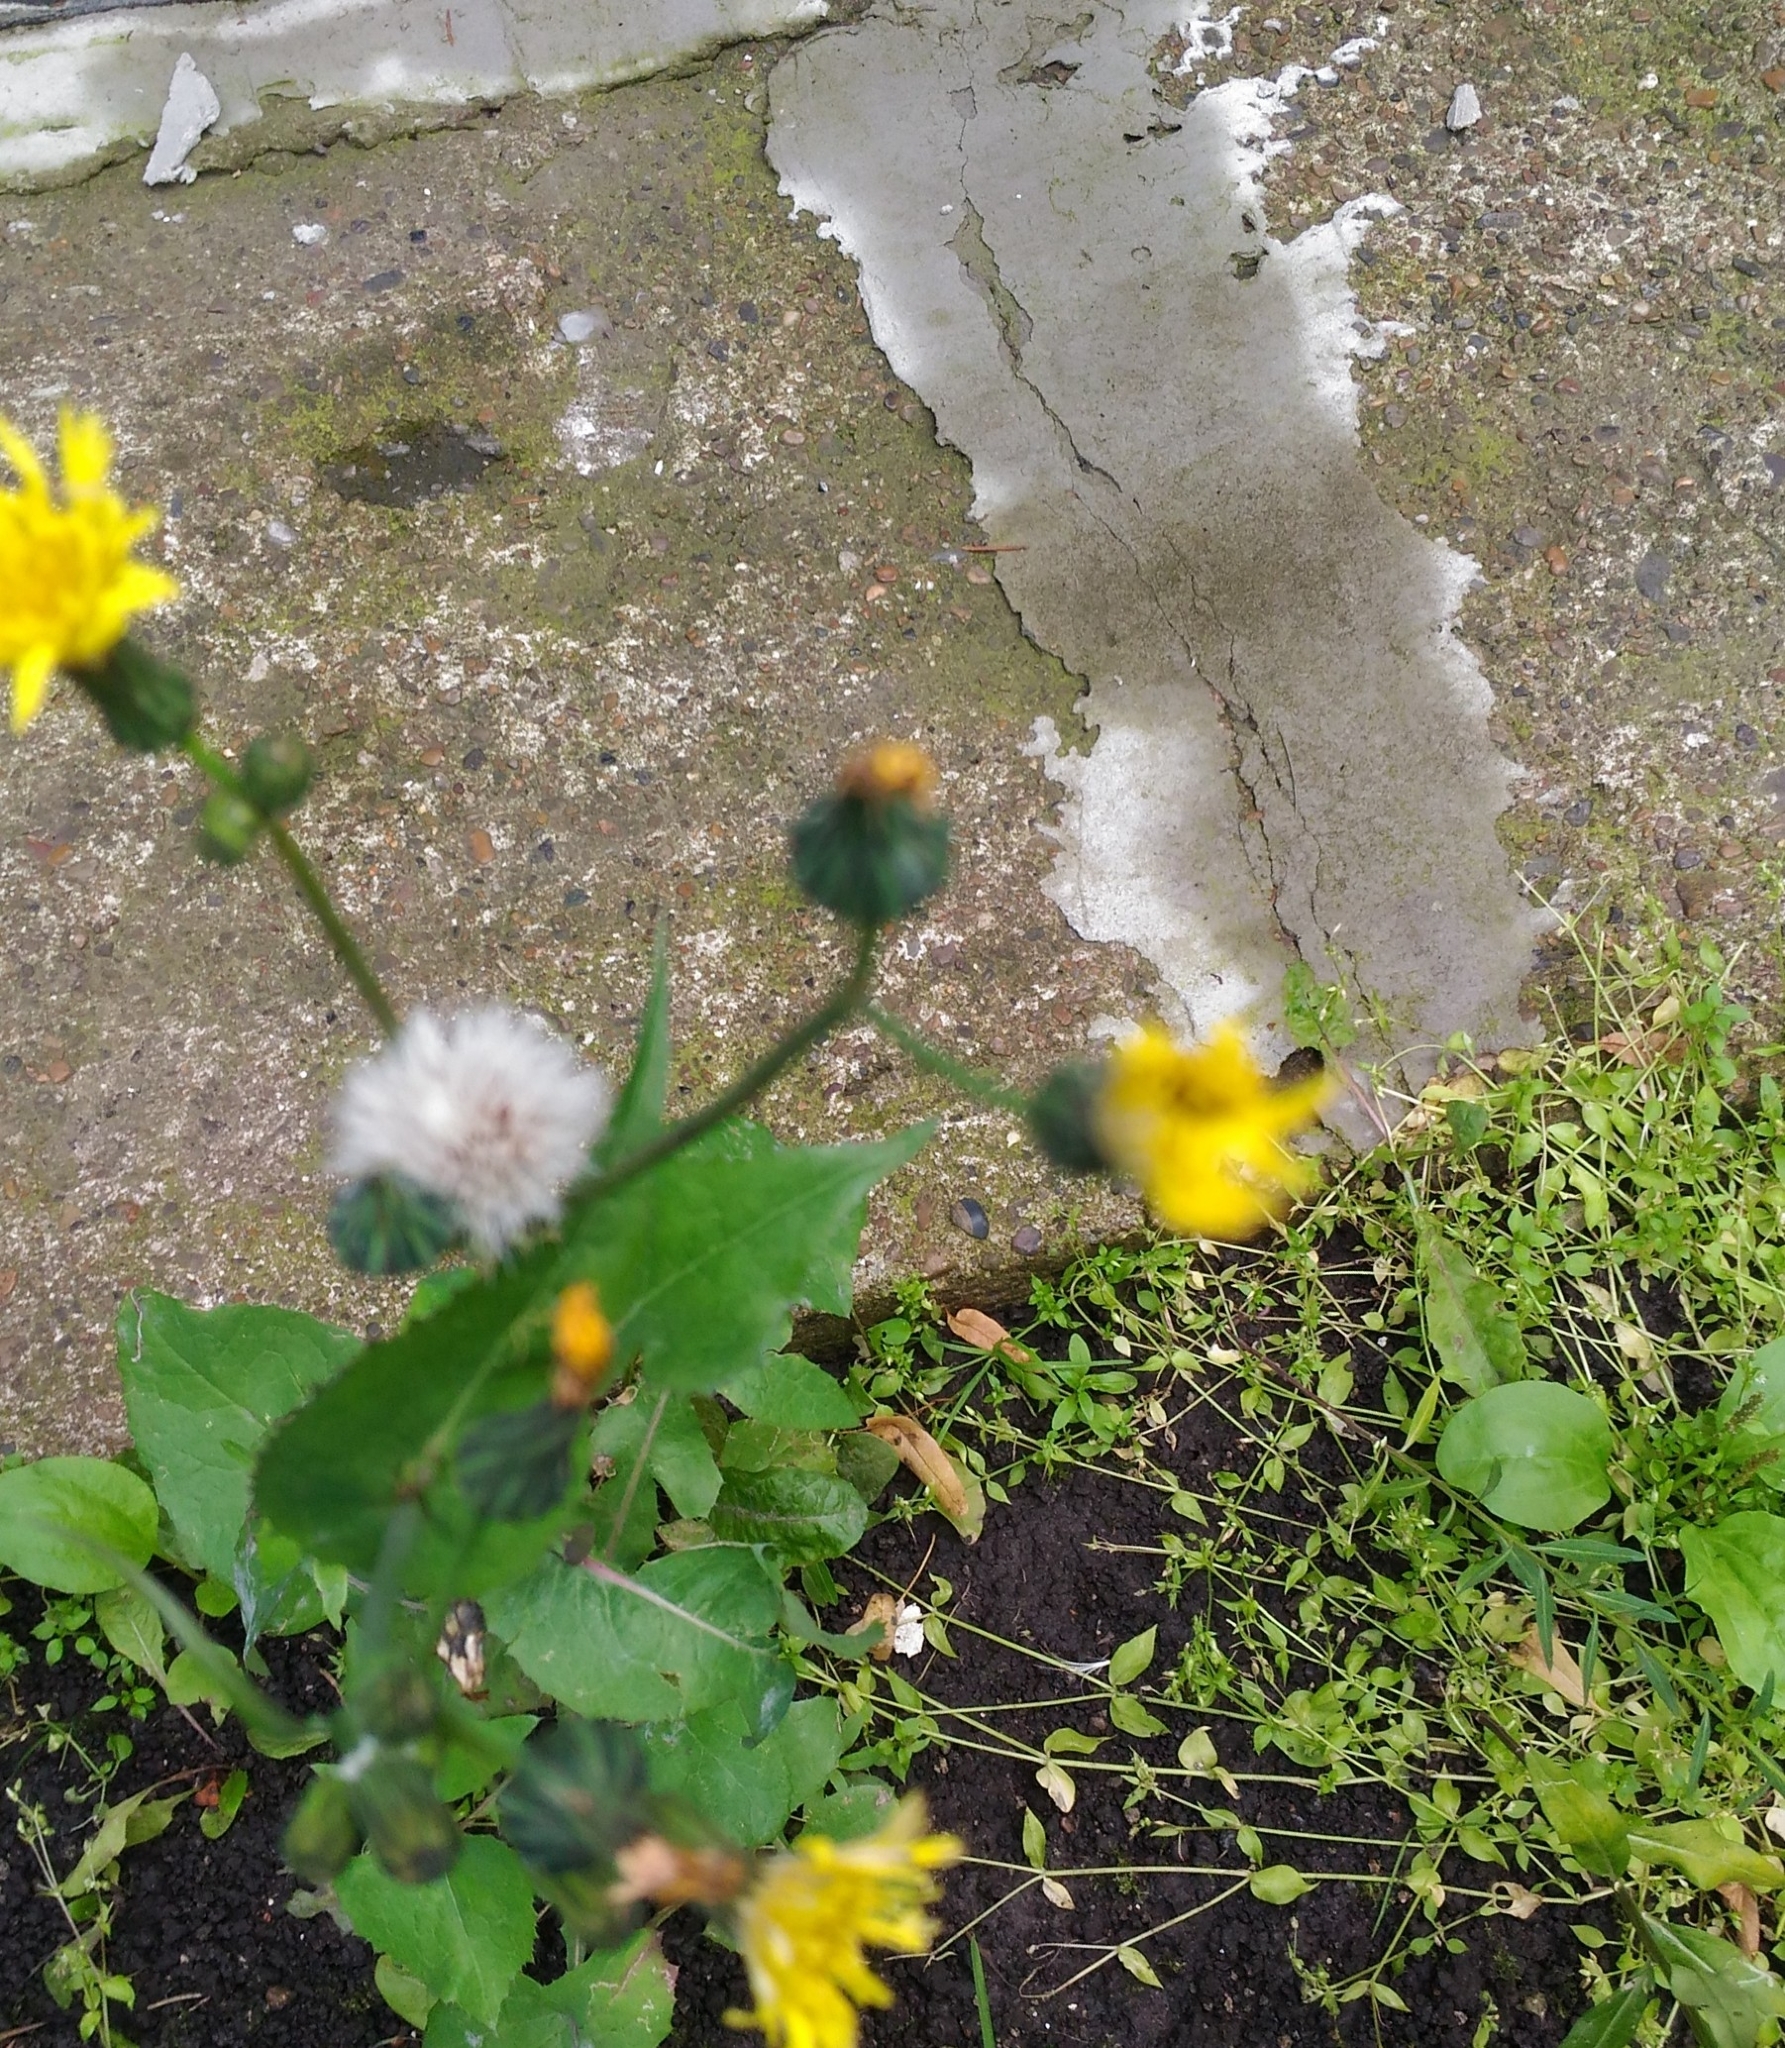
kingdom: Plantae
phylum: Tracheophyta
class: Magnoliopsida
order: Asterales
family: Asteraceae
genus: Sonchus
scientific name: Sonchus oleraceus
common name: Common sowthistle
